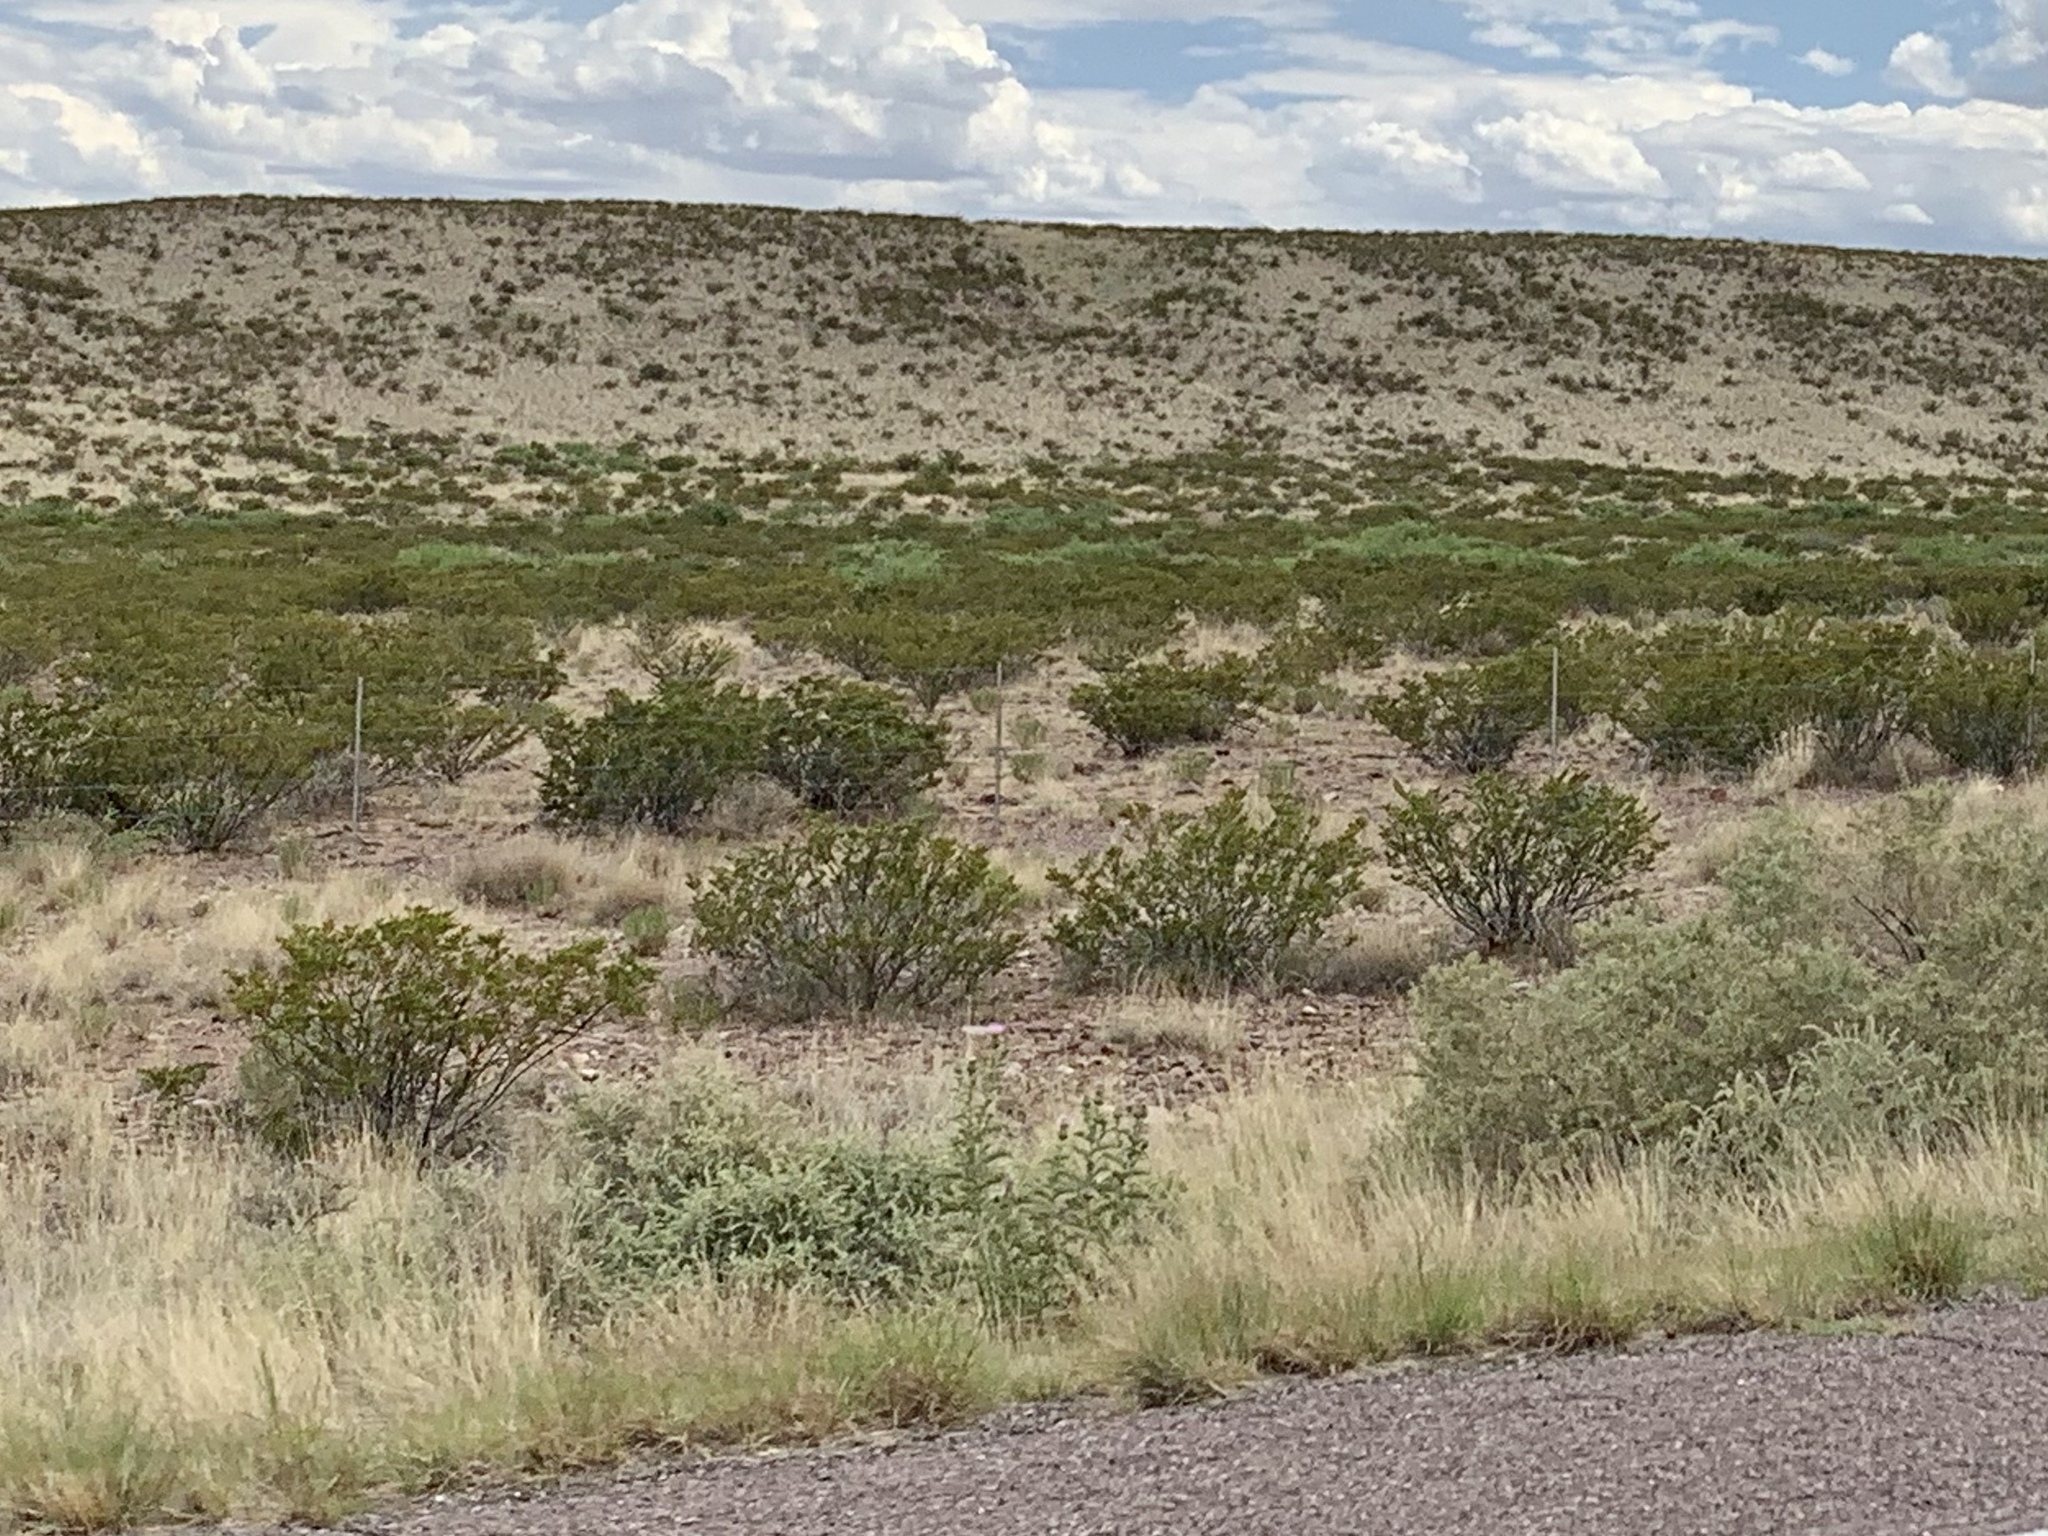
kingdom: Plantae
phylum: Tracheophyta
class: Magnoliopsida
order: Zygophyllales
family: Zygophyllaceae
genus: Larrea
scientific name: Larrea tridentata
